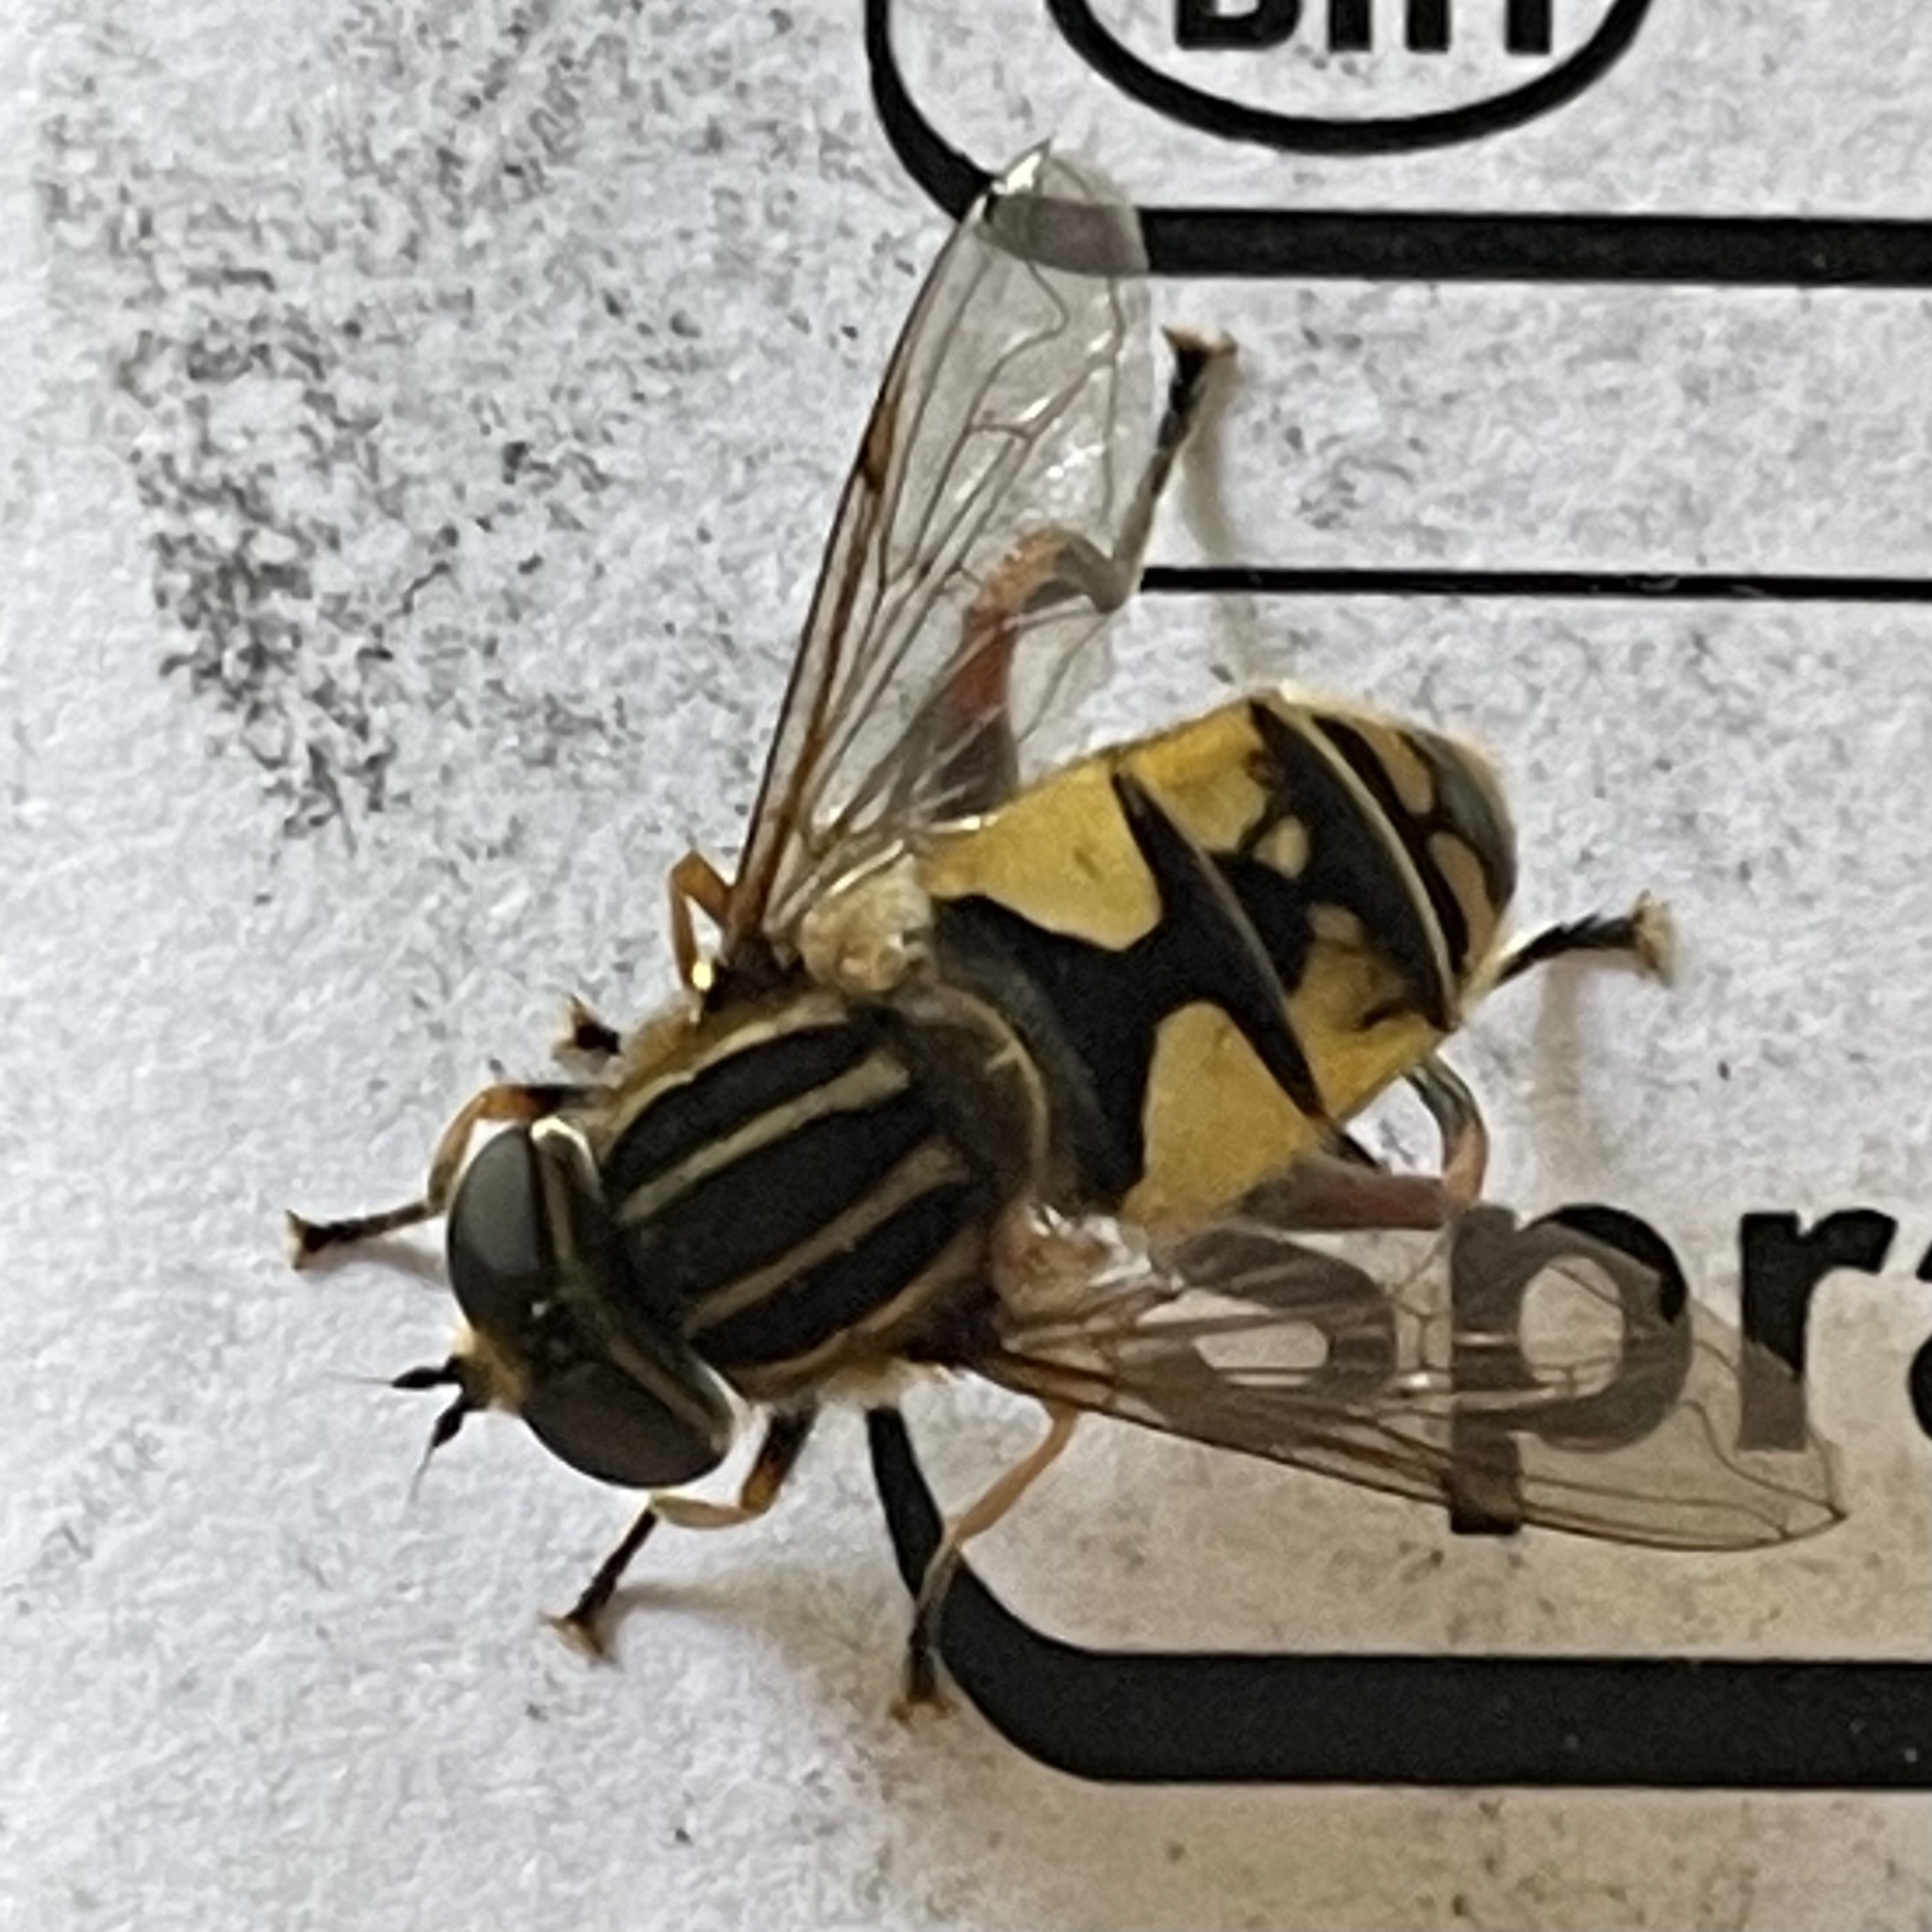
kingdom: Animalia
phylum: Arthropoda
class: Insecta
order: Diptera
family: Syrphidae
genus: Helophilus
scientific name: Helophilus pendulus
